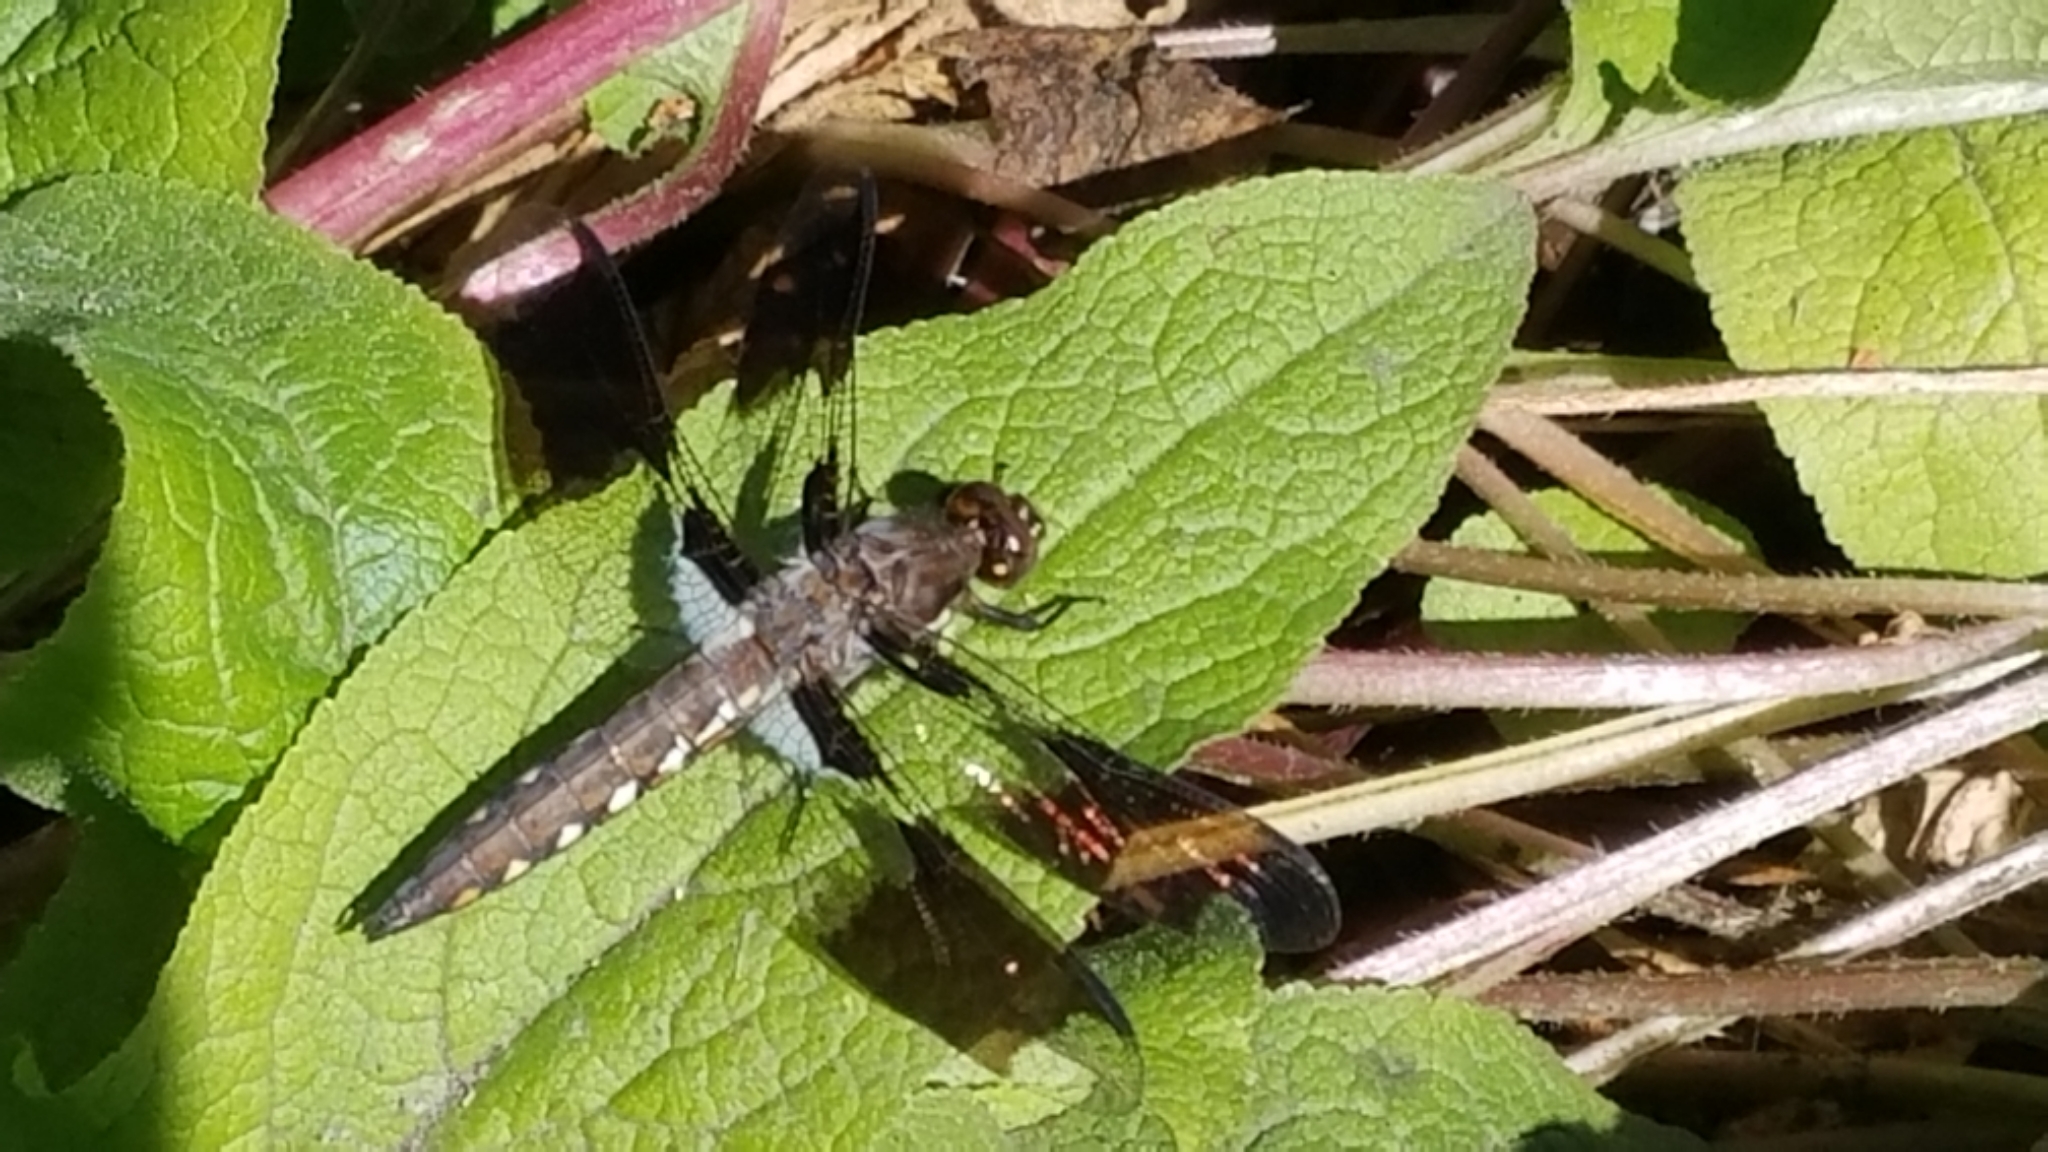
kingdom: Animalia
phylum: Arthropoda
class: Insecta
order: Odonata
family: Libellulidae
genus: Plathemis
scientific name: Plathemis lydia
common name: Common whitetail
